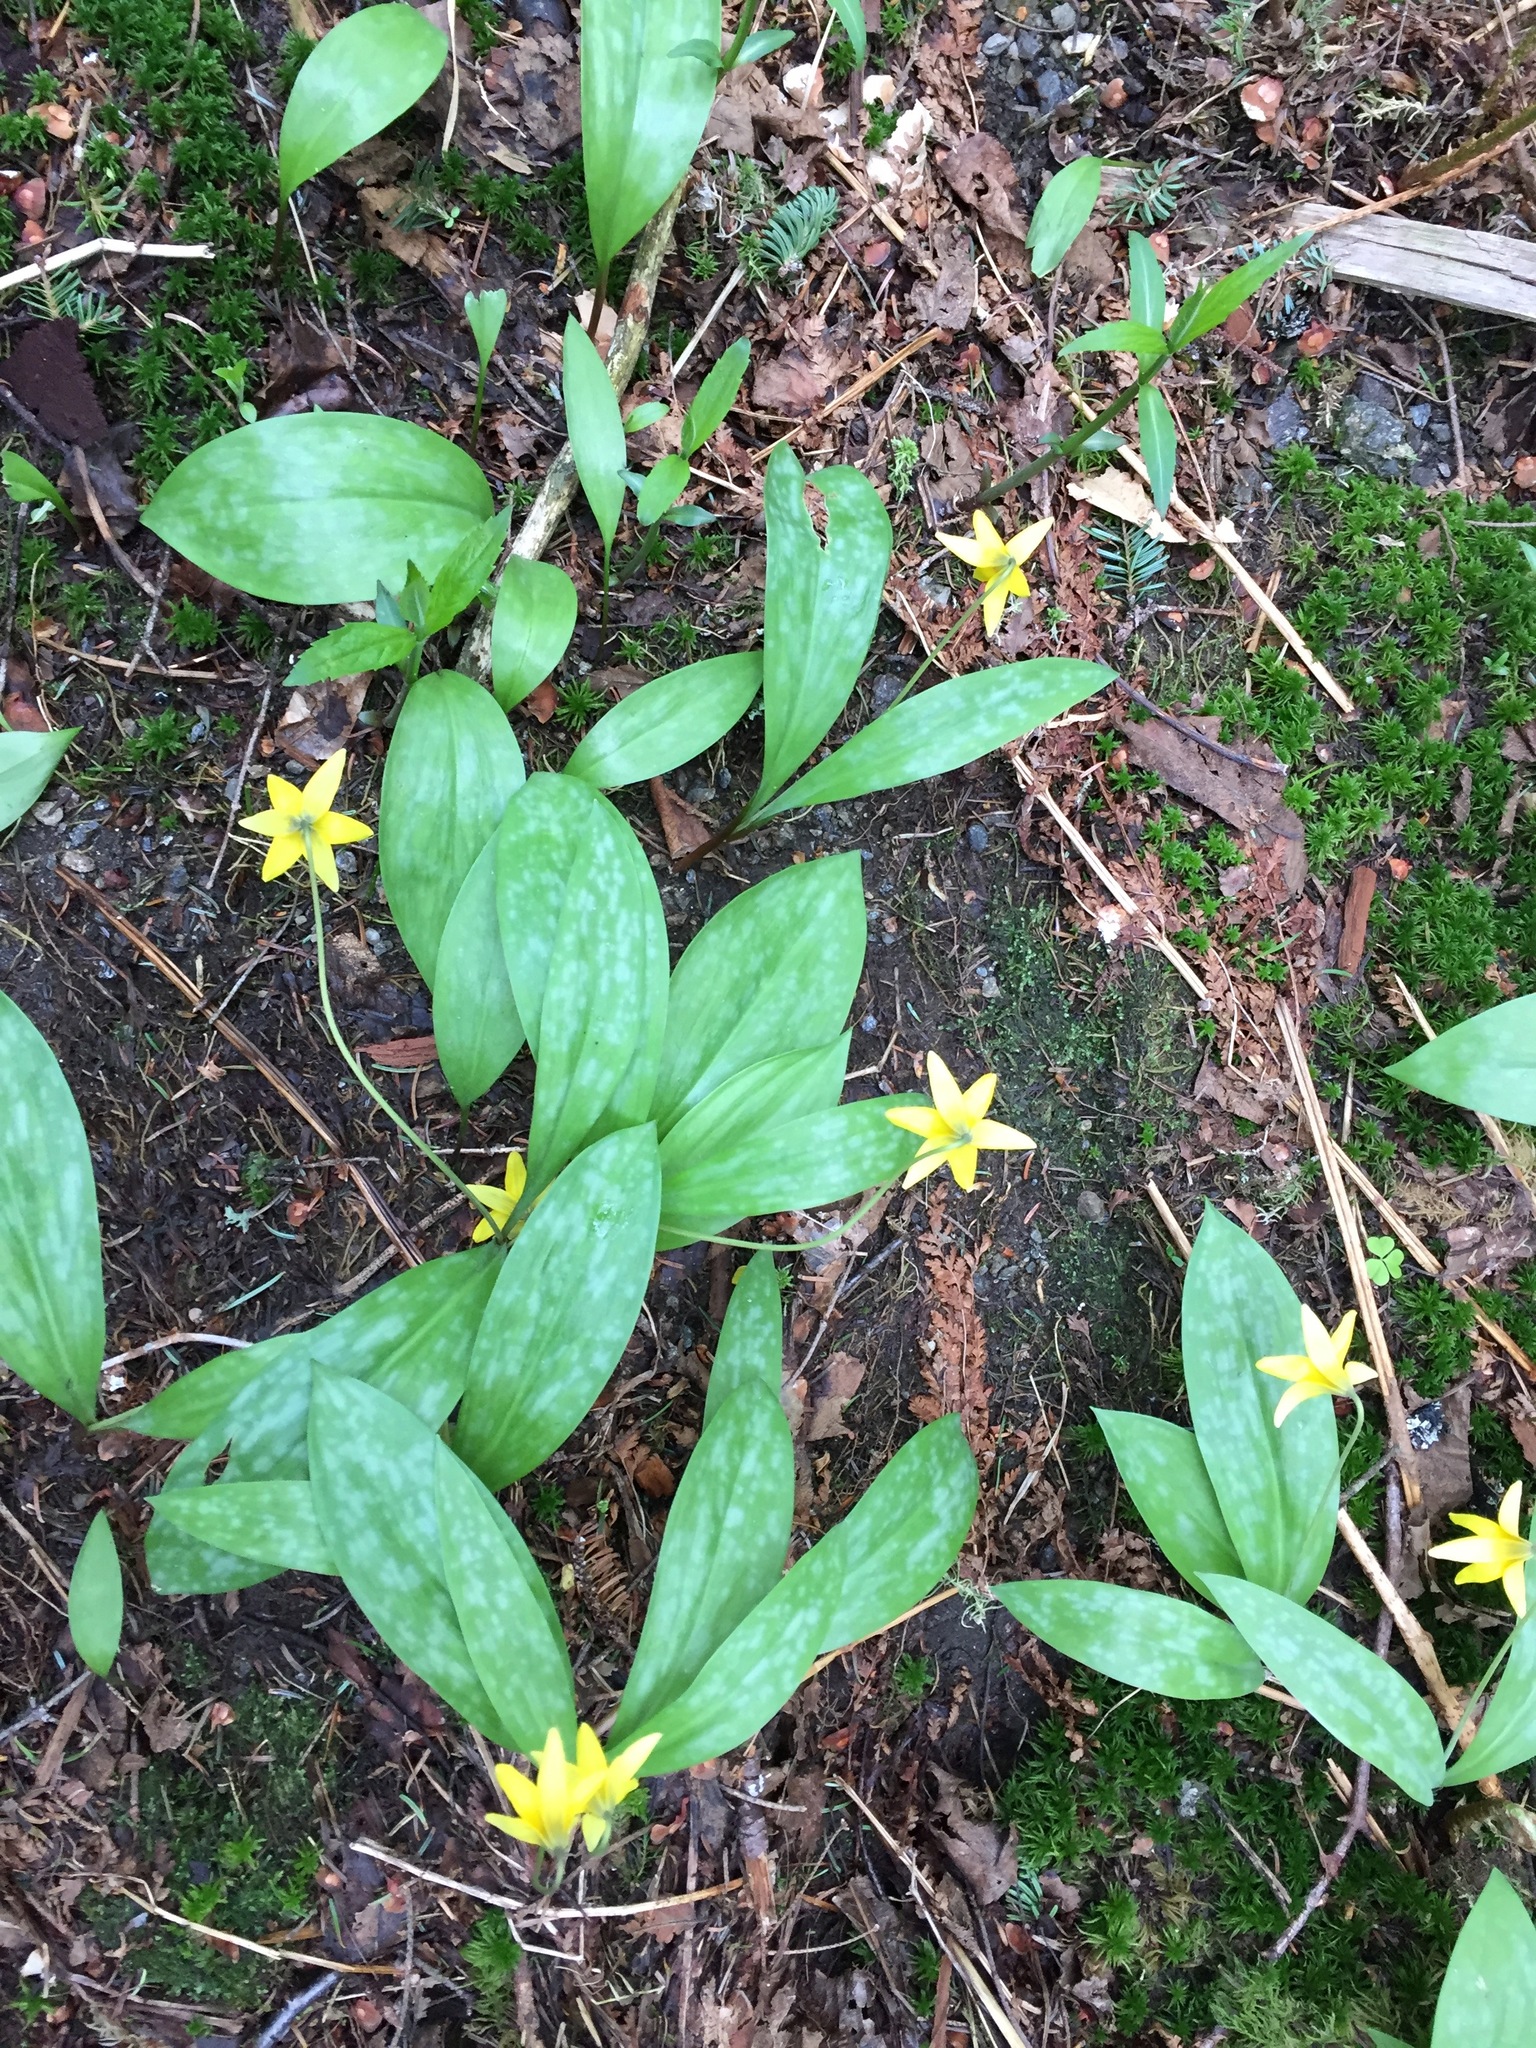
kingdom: Plantae
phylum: Tracheophyta
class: Liliopsida
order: Liliales
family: Liliaceae
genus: Erythronium
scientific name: Erythronium americanum
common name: Yellow adder's-tongue
